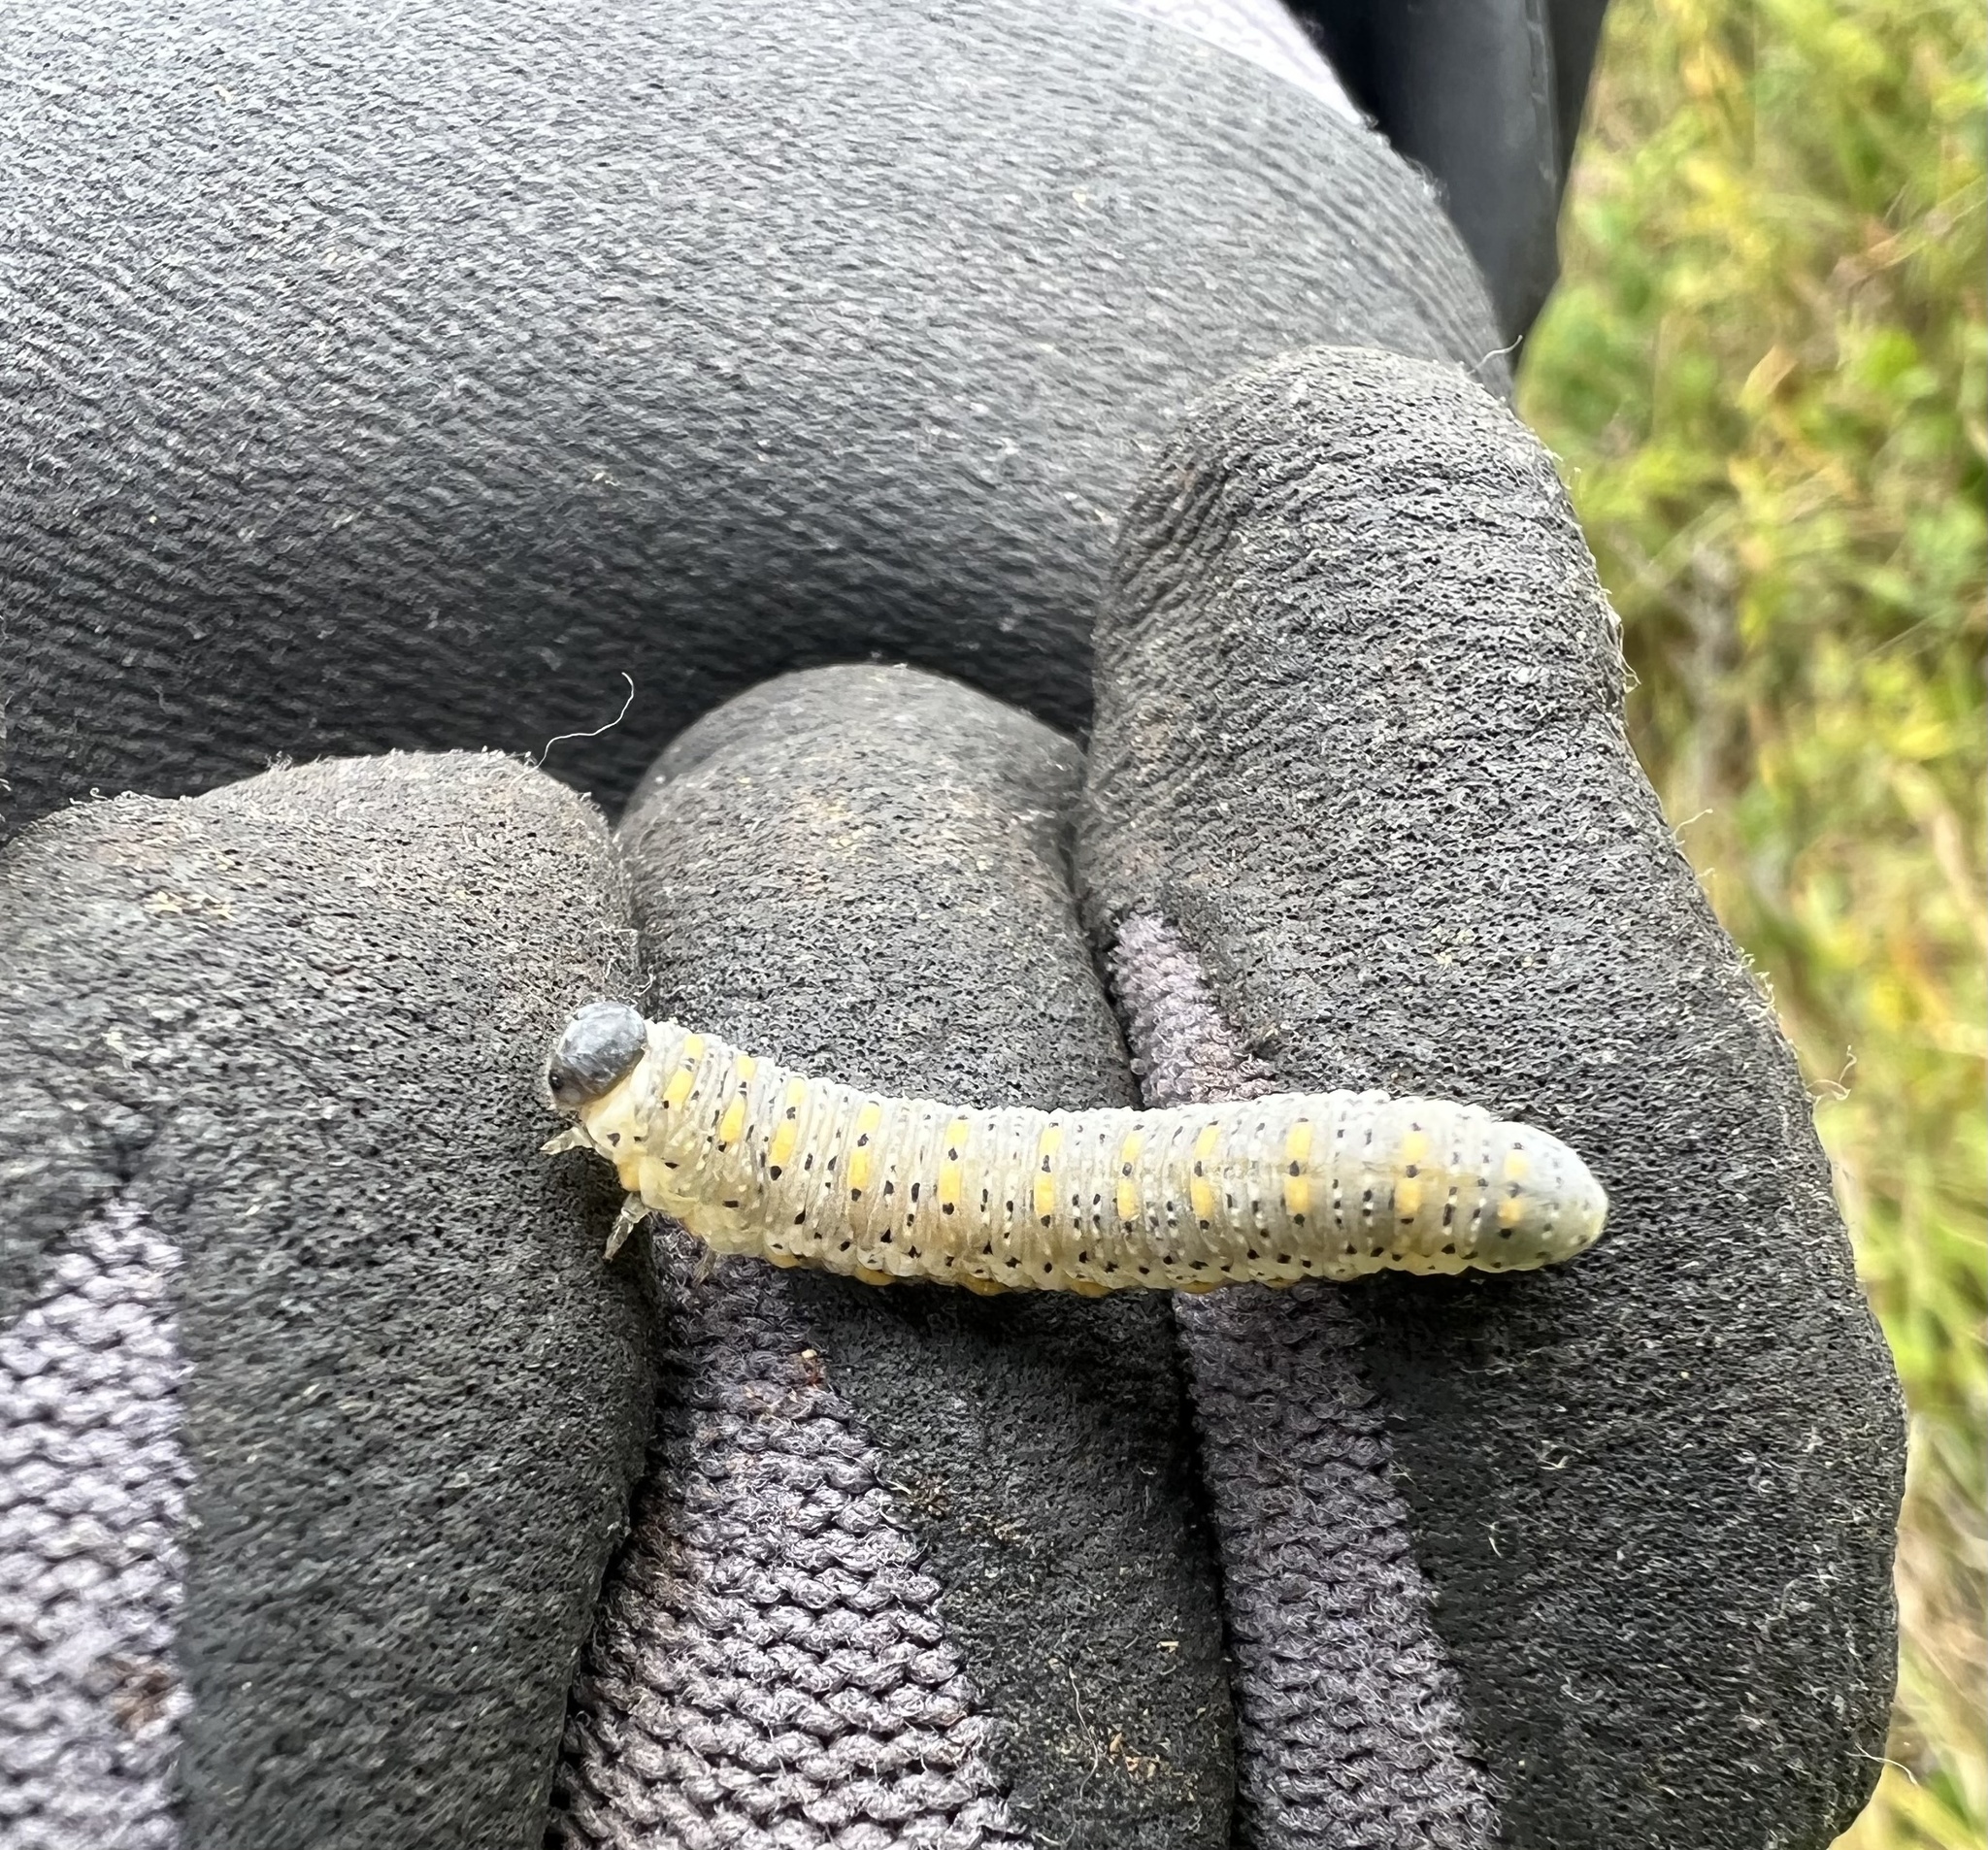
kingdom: Animalia
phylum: Arthropoda
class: Insecta
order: Hymenoptera
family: Cimbicidae
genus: Abia
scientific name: Abia americana
